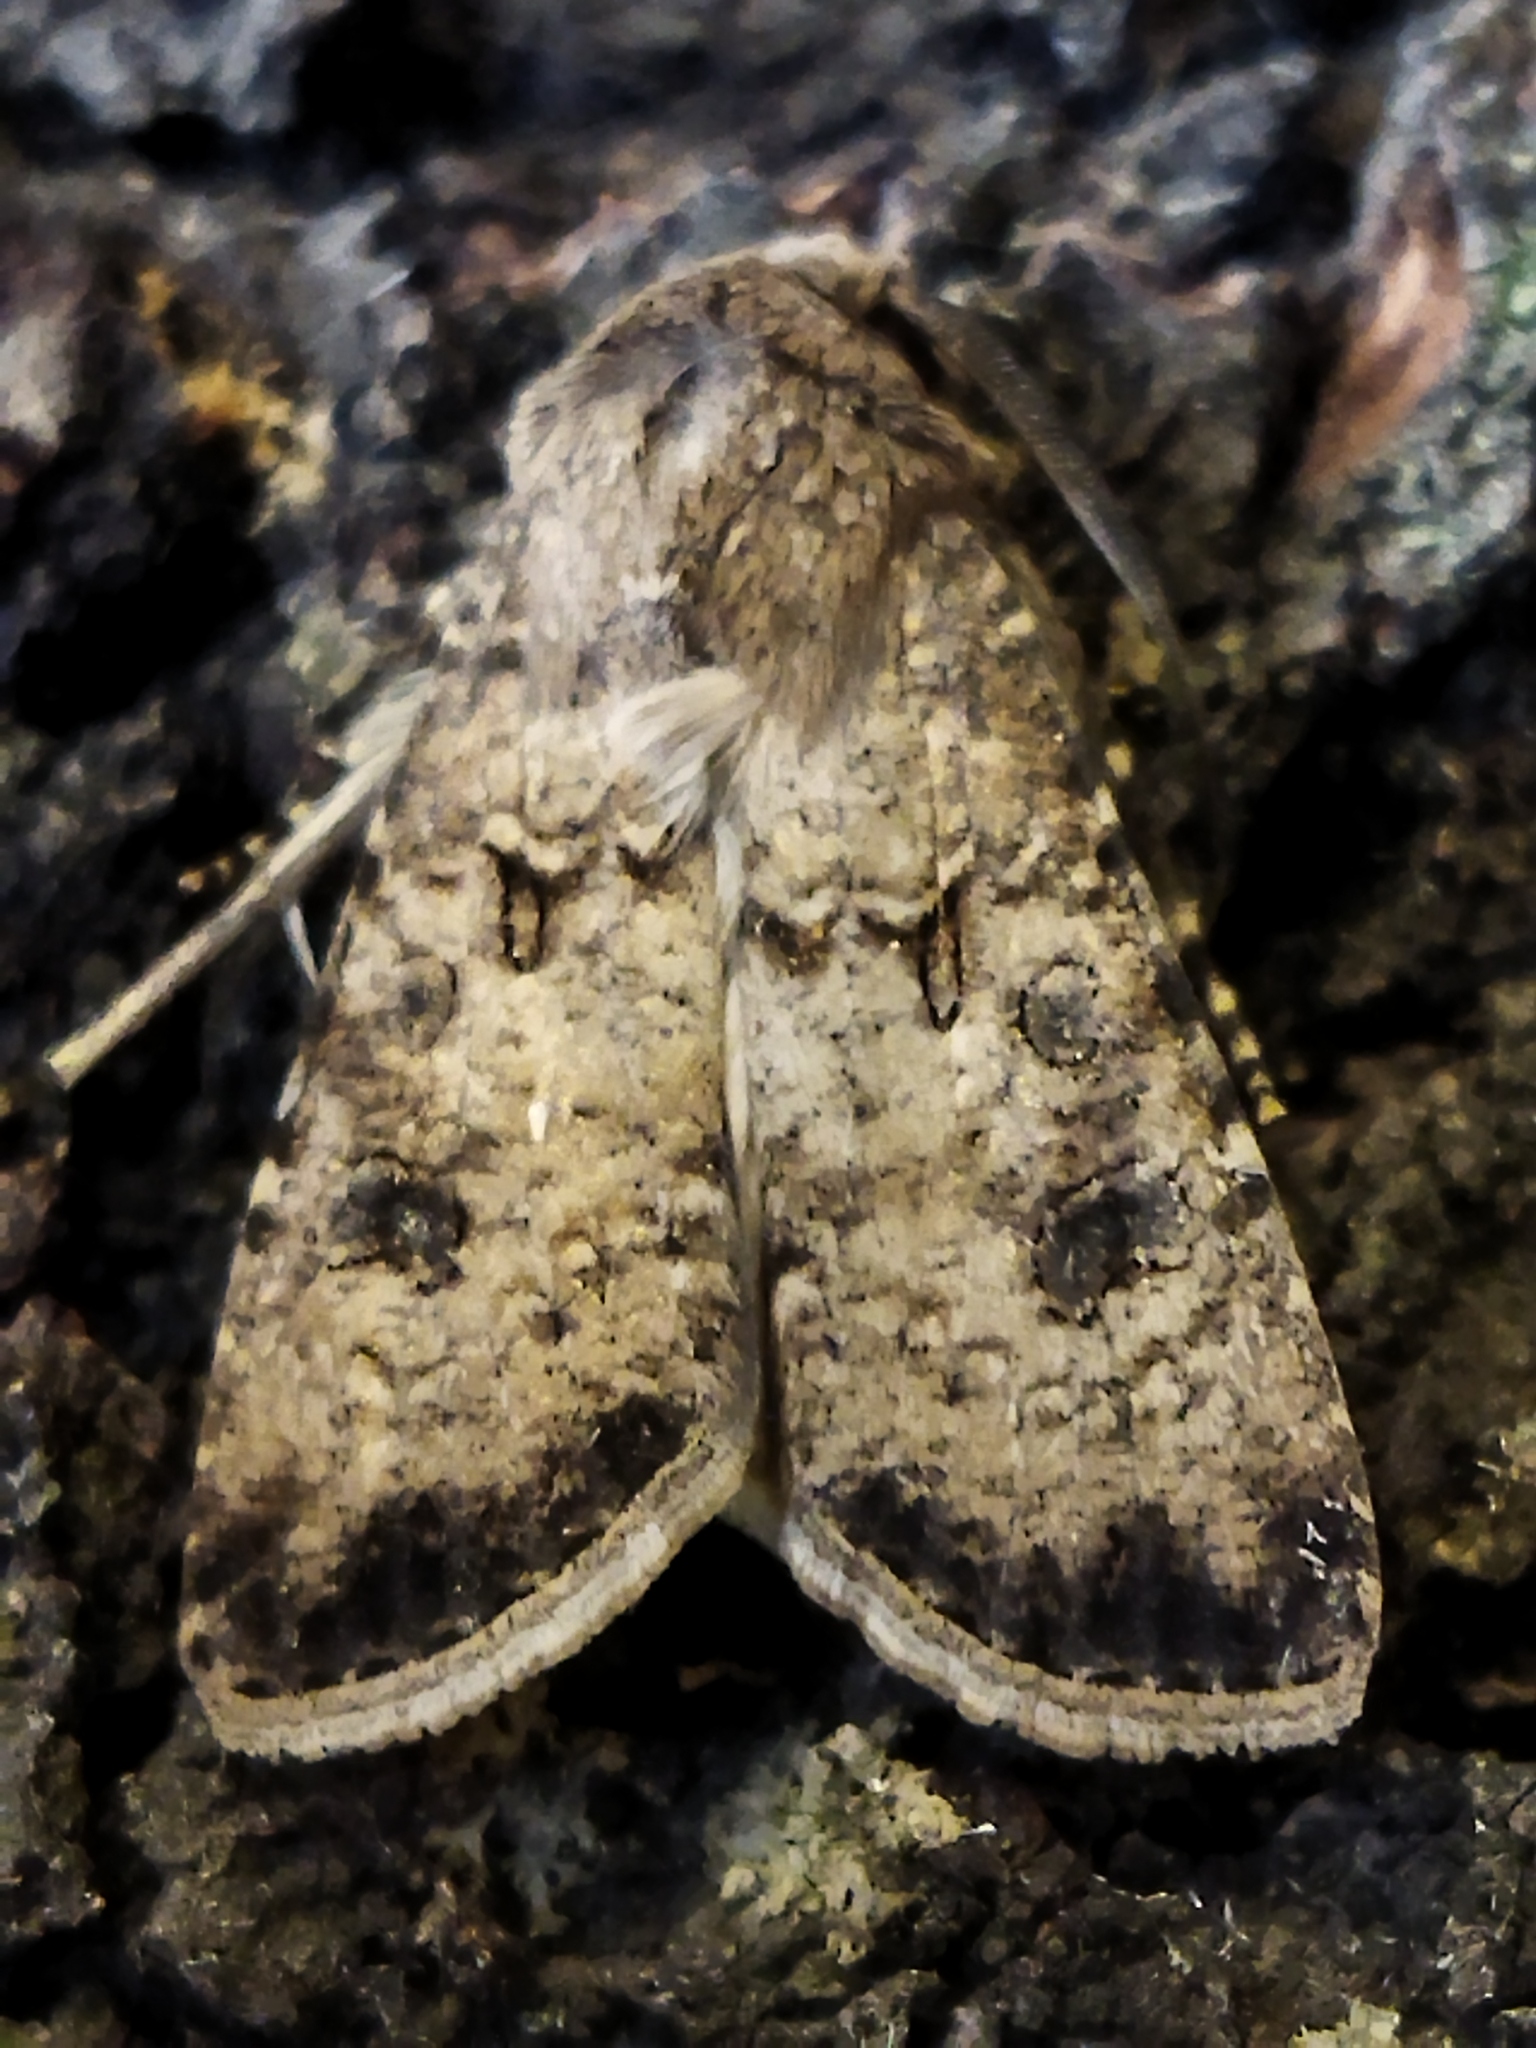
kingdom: Animalia
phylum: Arthropoda
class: Insecta
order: Lepidoptera
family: Noctuidae
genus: Agrotis
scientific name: Agrotis segetum
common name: Turnip moth
